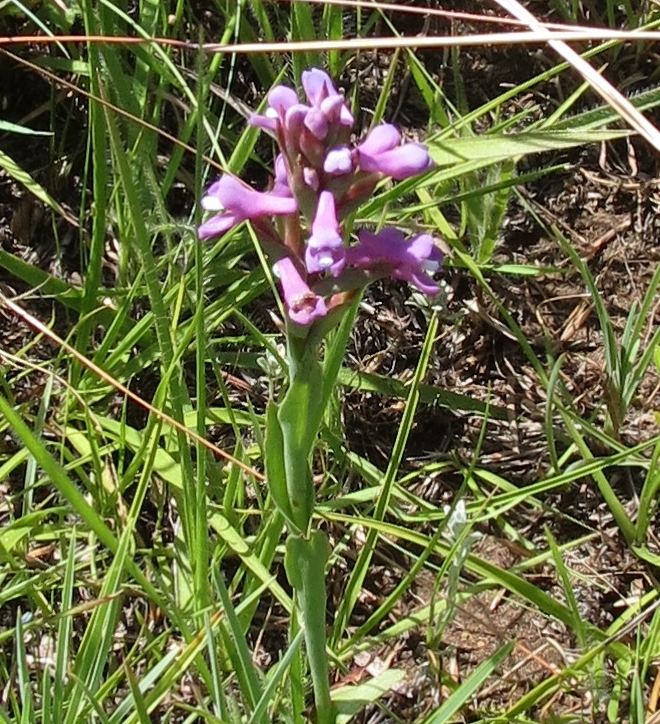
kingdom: Plantae
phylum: Tracheophyta
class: Liliopsida
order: Asparagales
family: Orchidaceae
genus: Disa
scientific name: Disa stachyoides
